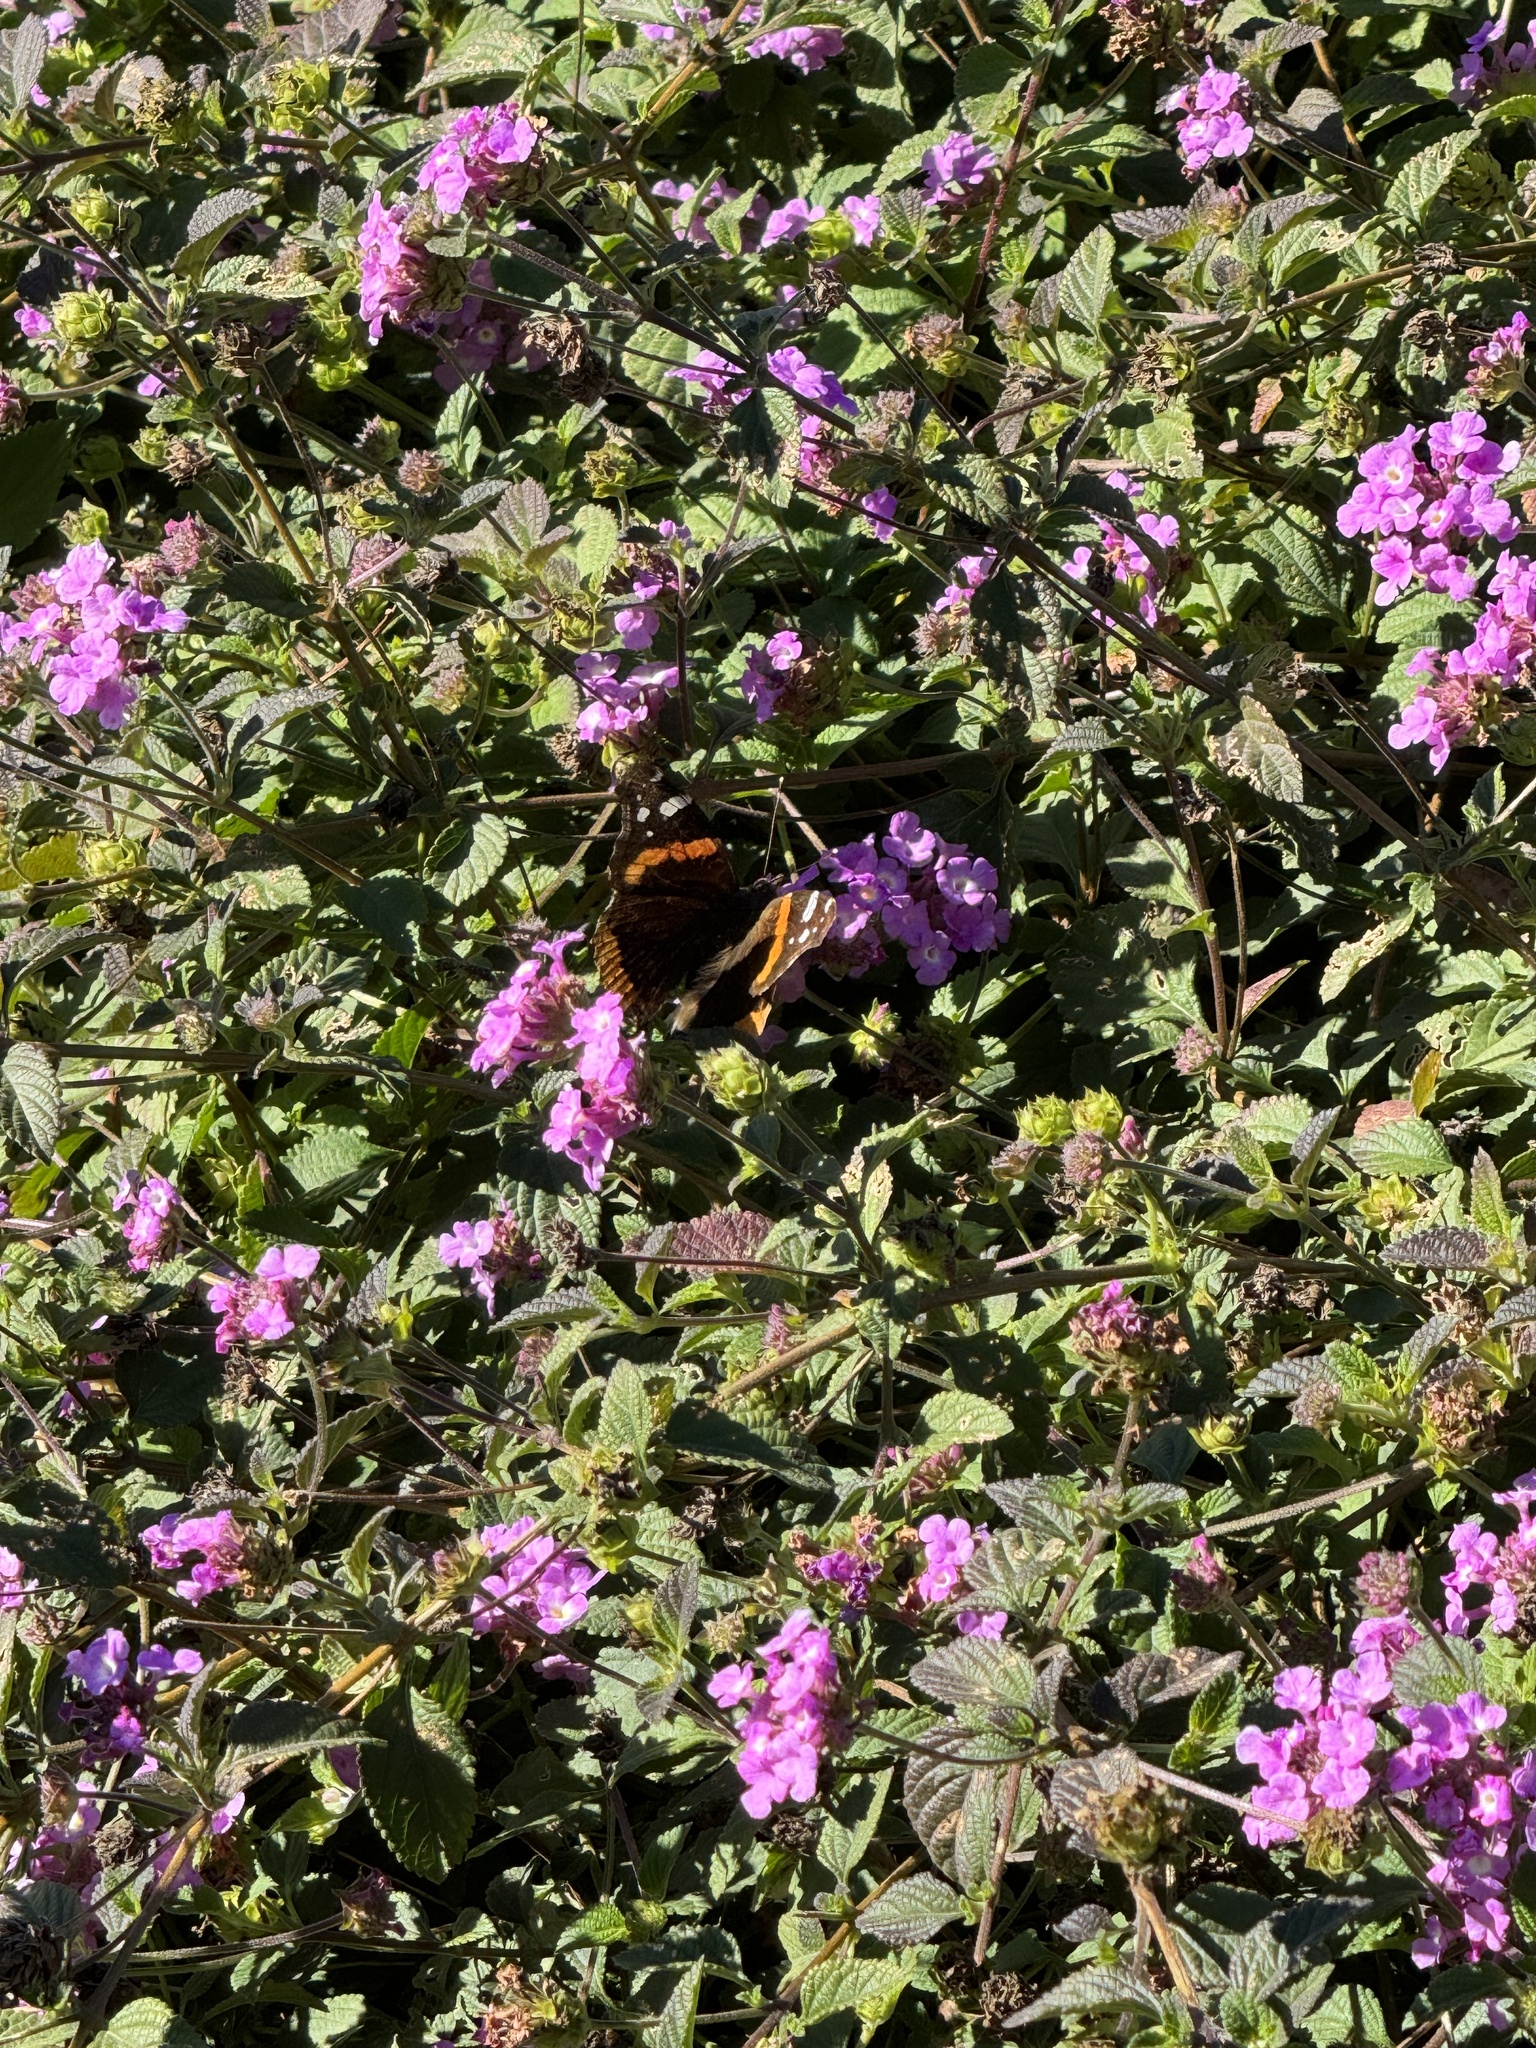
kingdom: Animalia
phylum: Arthropoda
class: Insecta
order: Lepidoptera
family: Nymphalidae
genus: Vanessa
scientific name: Vanessa atalanta
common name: Red admiral
